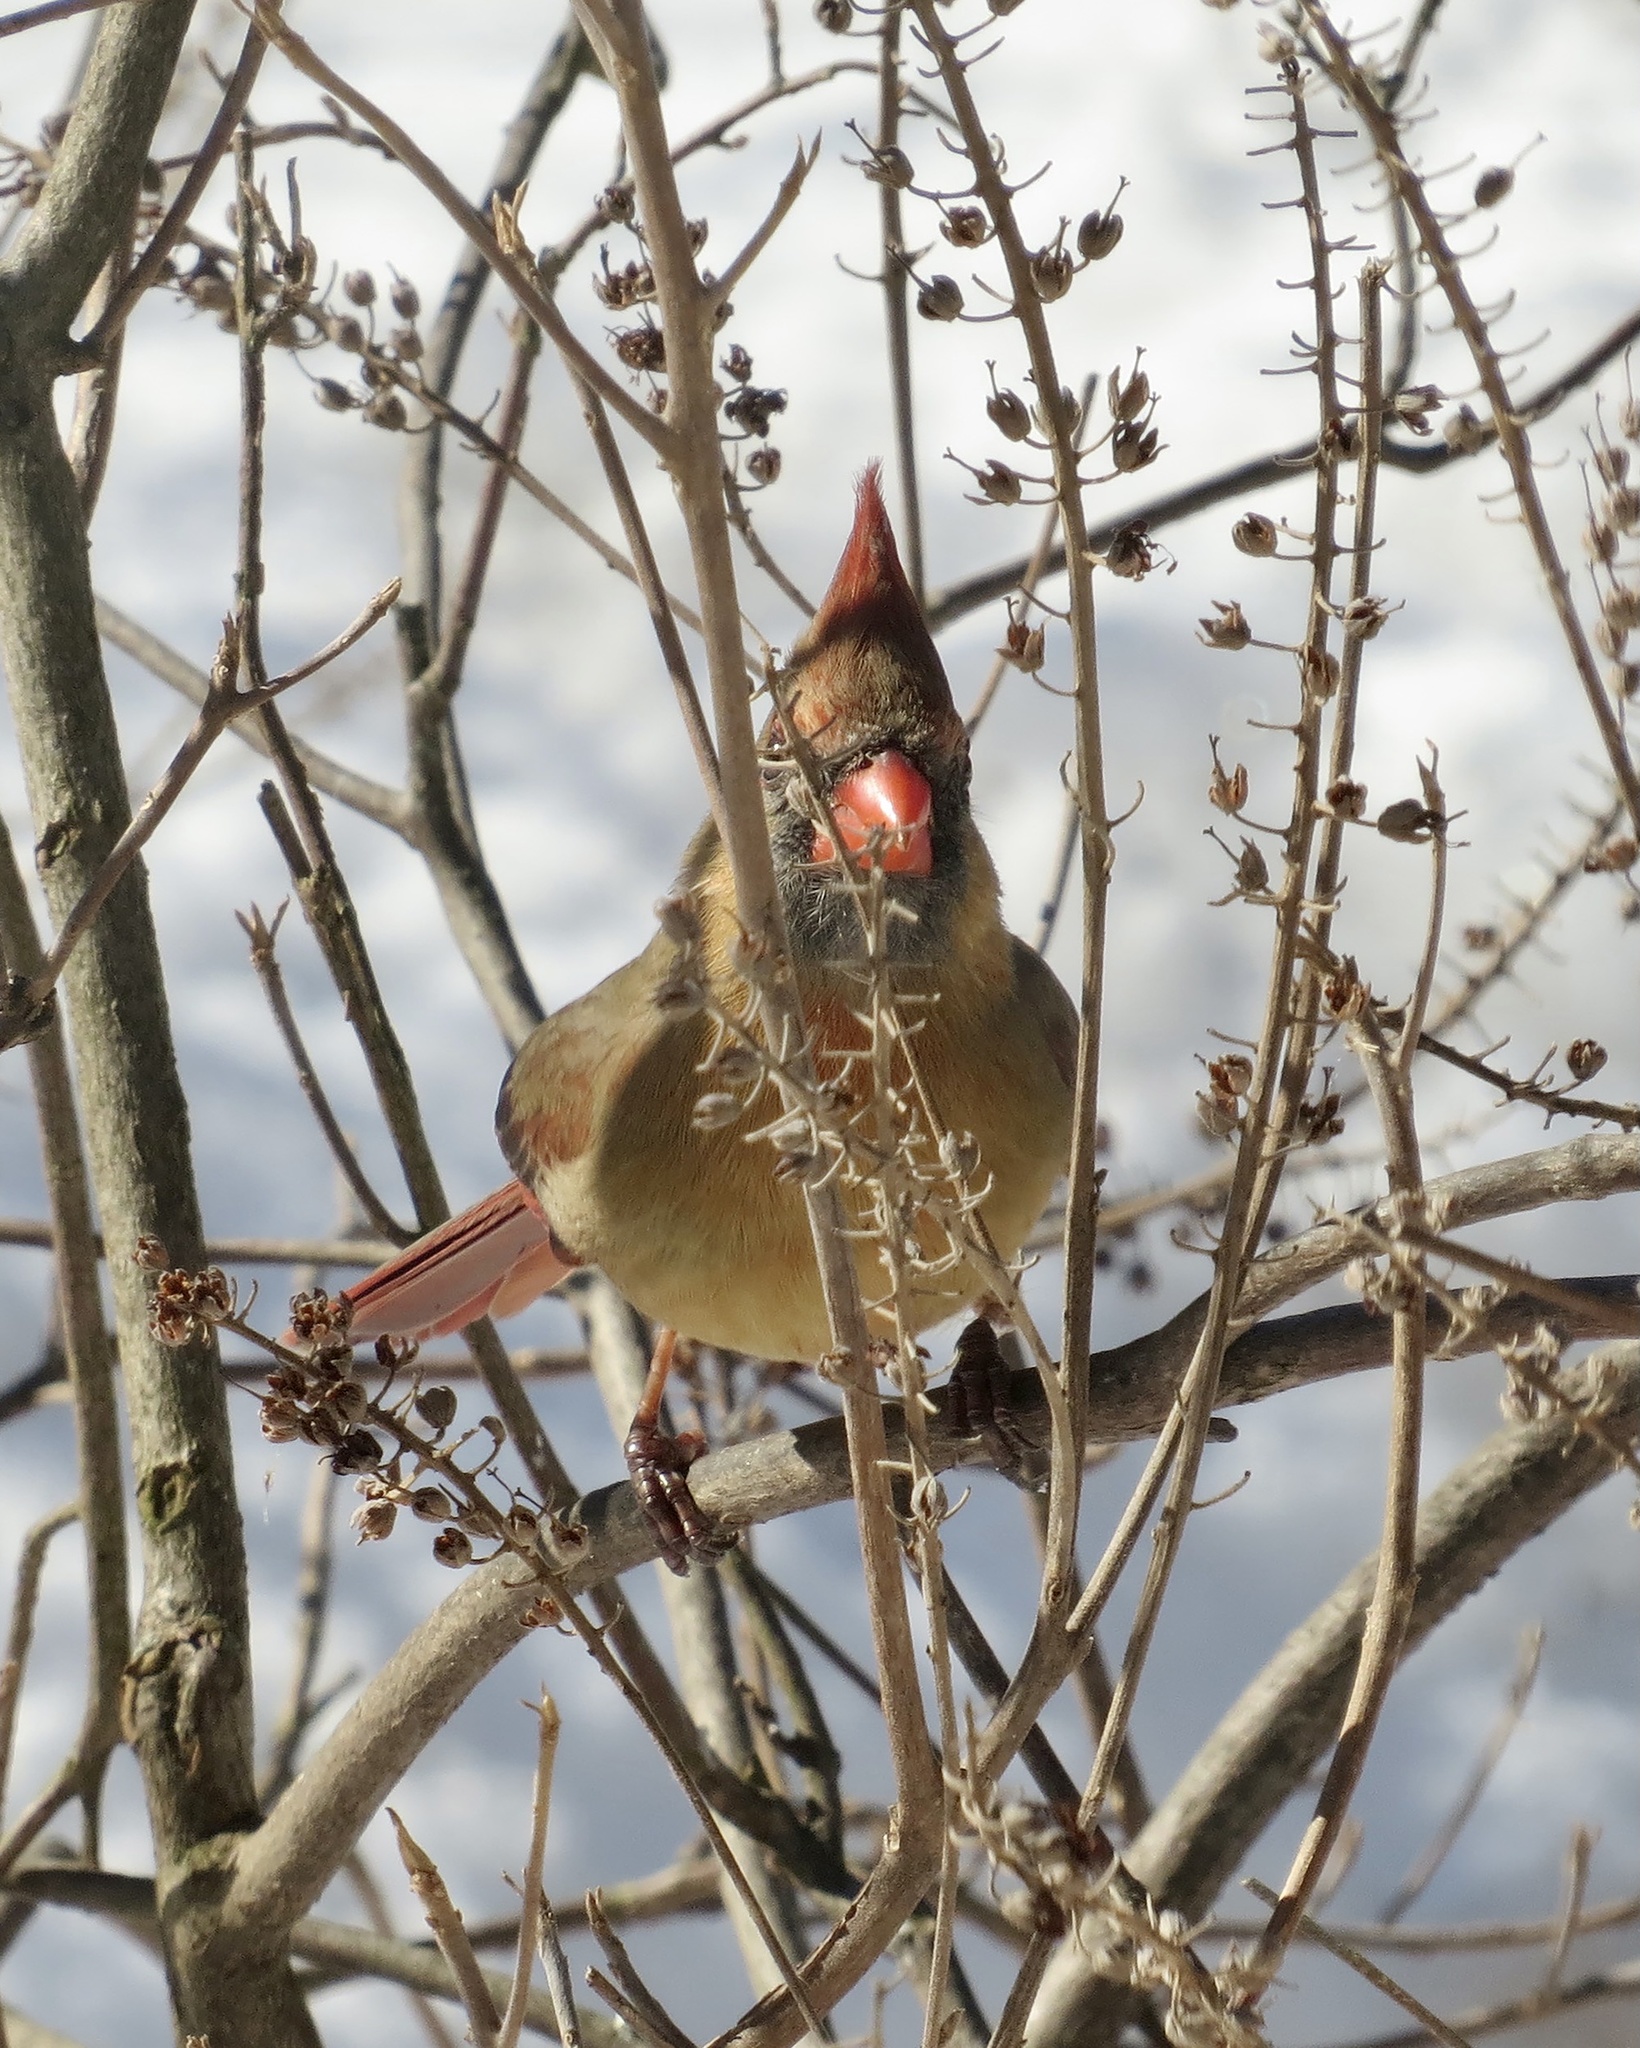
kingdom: Animalia
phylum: Chordata
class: Aves
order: Passeriformes
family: Cardinalidae
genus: Cardinalis
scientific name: Cardinalis cardinalis
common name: Northern cardinal
